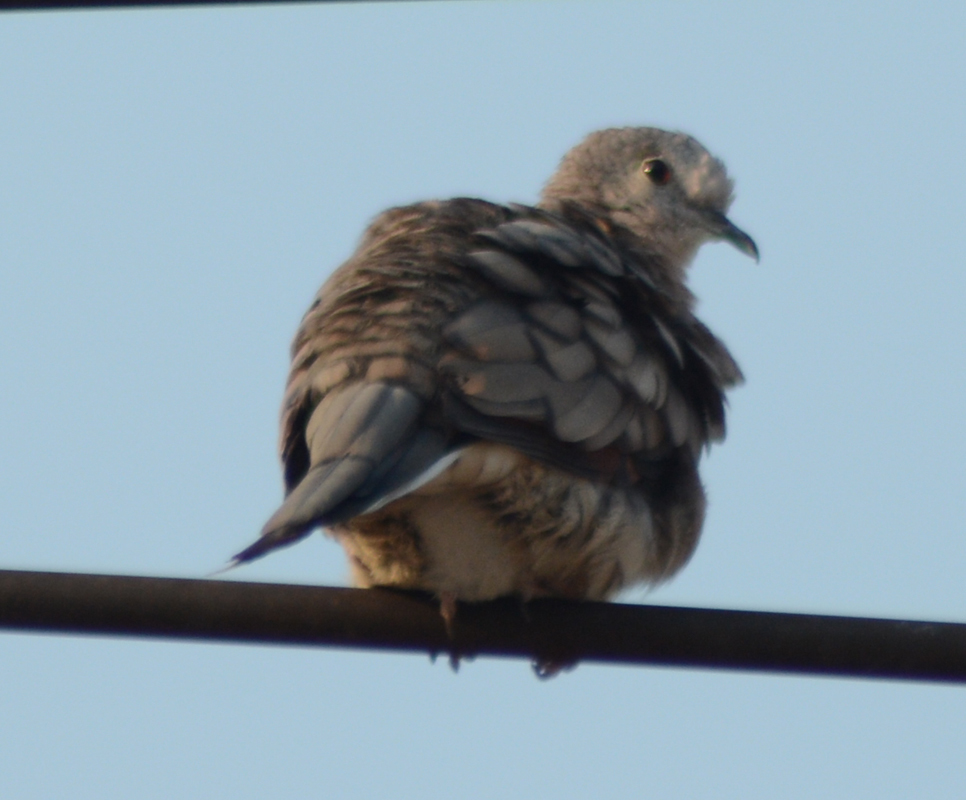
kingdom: Animalia
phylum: Chordata
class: Aves
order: Columbiformes
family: Columbidae
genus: Columbina
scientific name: Columbina inca
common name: Inca dove
